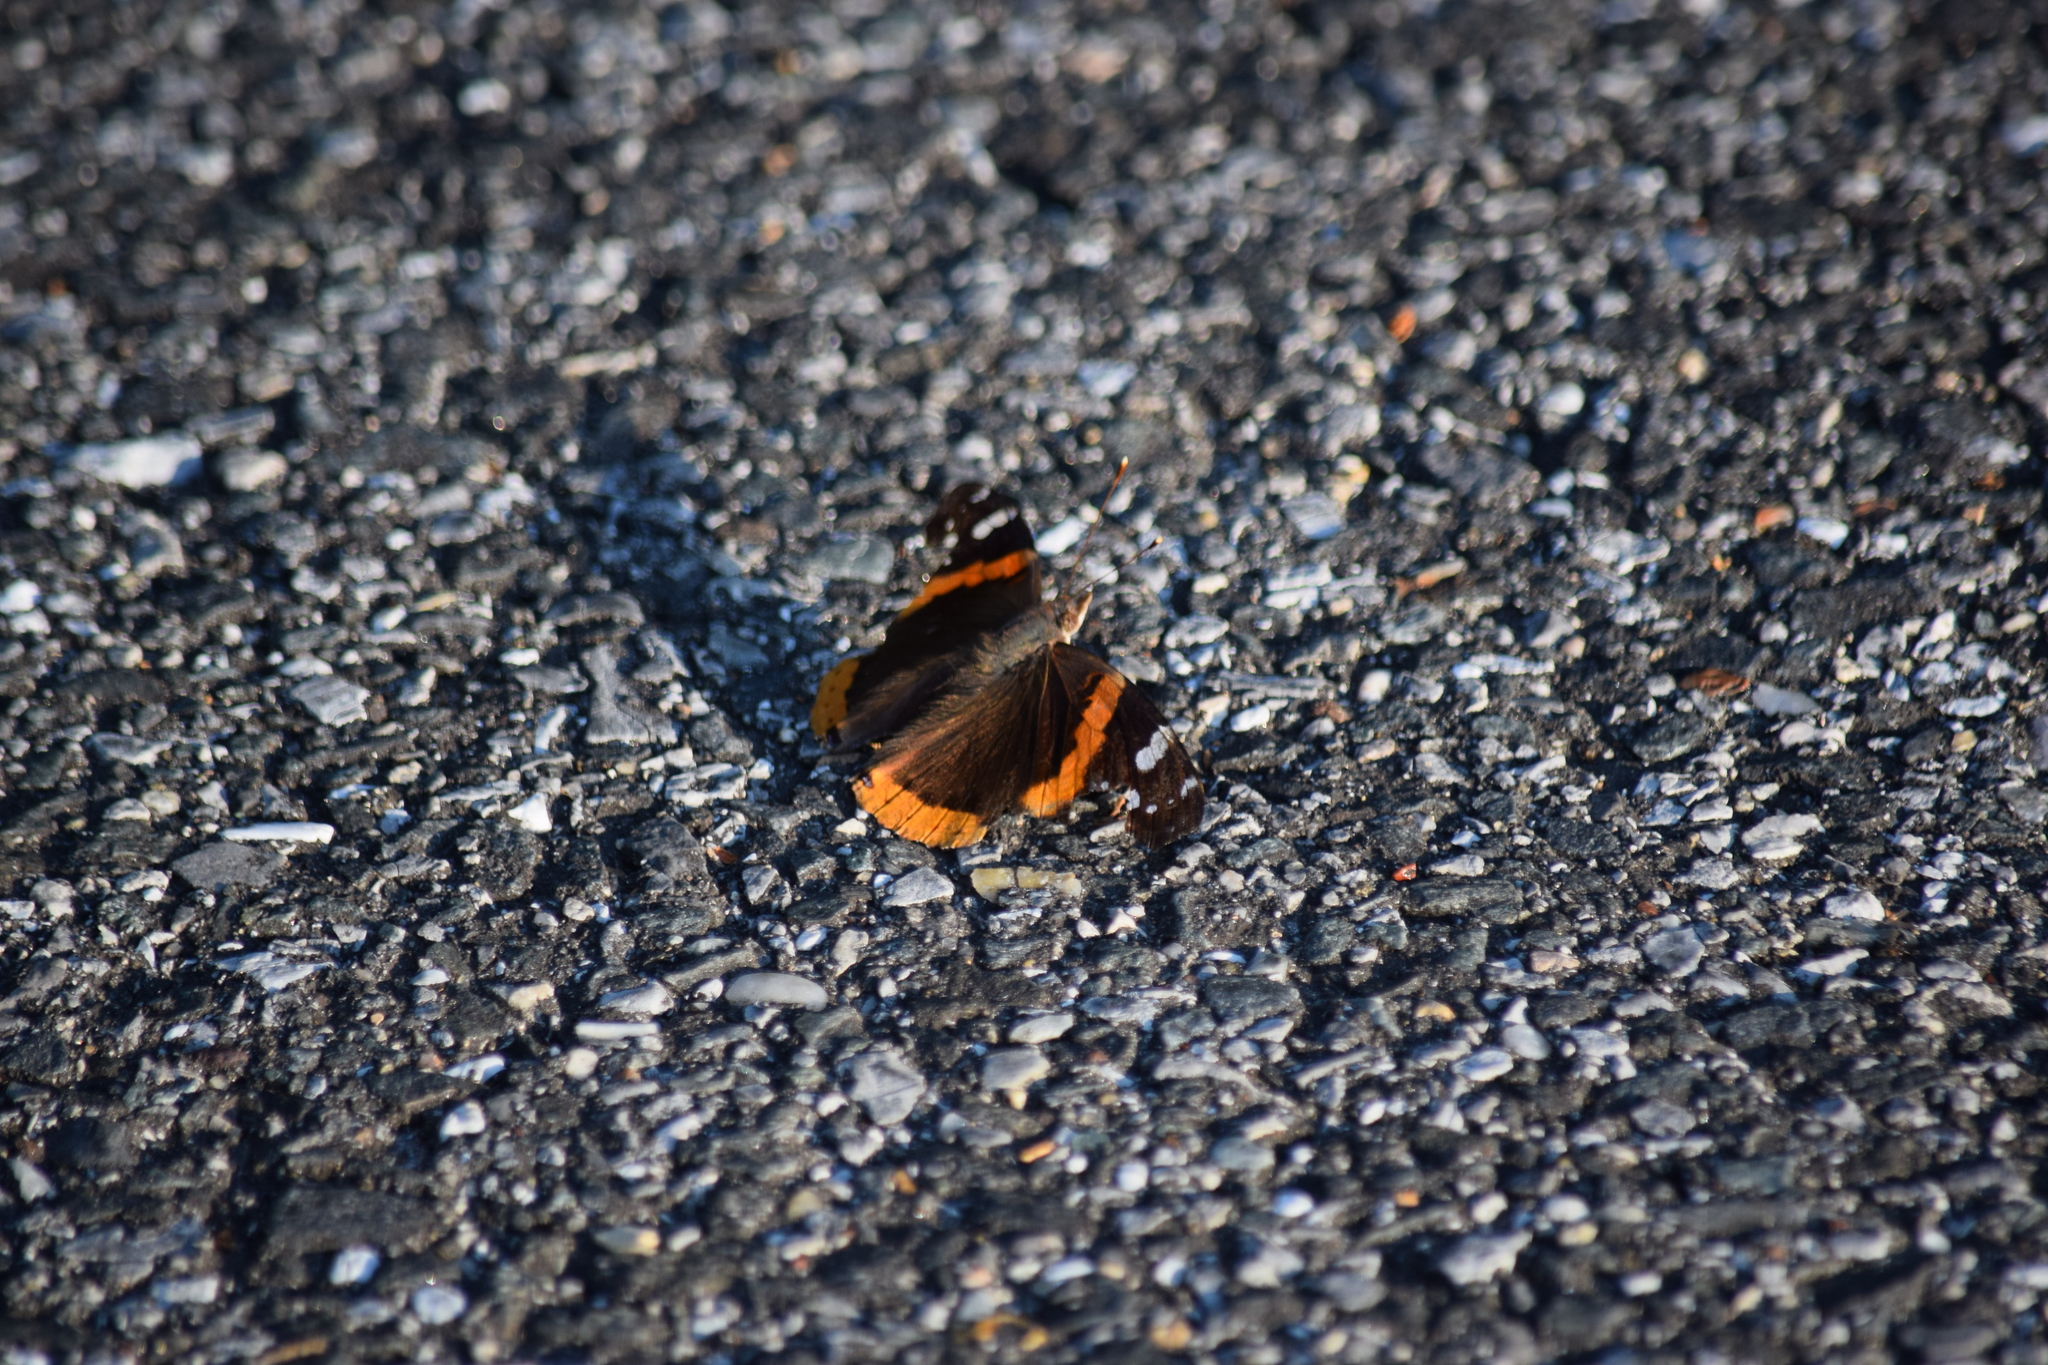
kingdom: Animalia
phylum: Arthropoda
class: Insecta
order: Lepidoptera
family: Nymphalidae
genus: Vanessa
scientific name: Vanessa atalanta
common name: Red admiral
